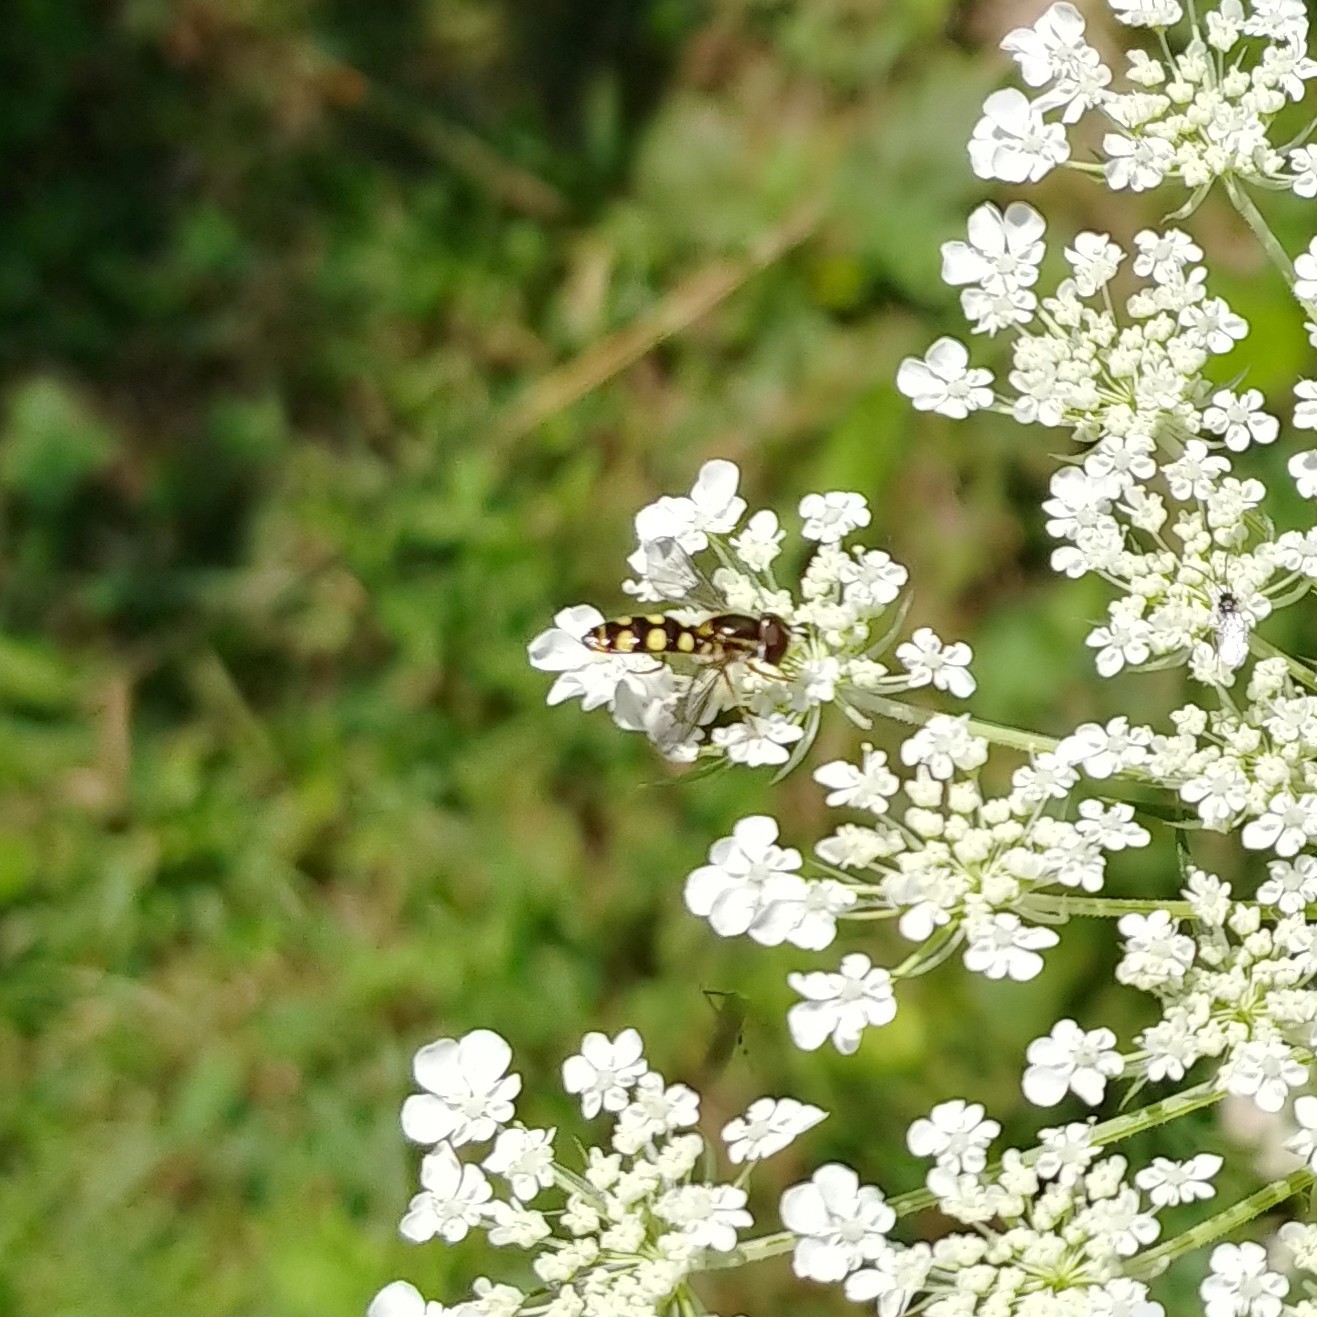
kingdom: Animalia
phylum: Arthropoda
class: Insecta
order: Diptera
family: Syrphidae
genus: Epistrophella
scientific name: Epistrophella emarginata
